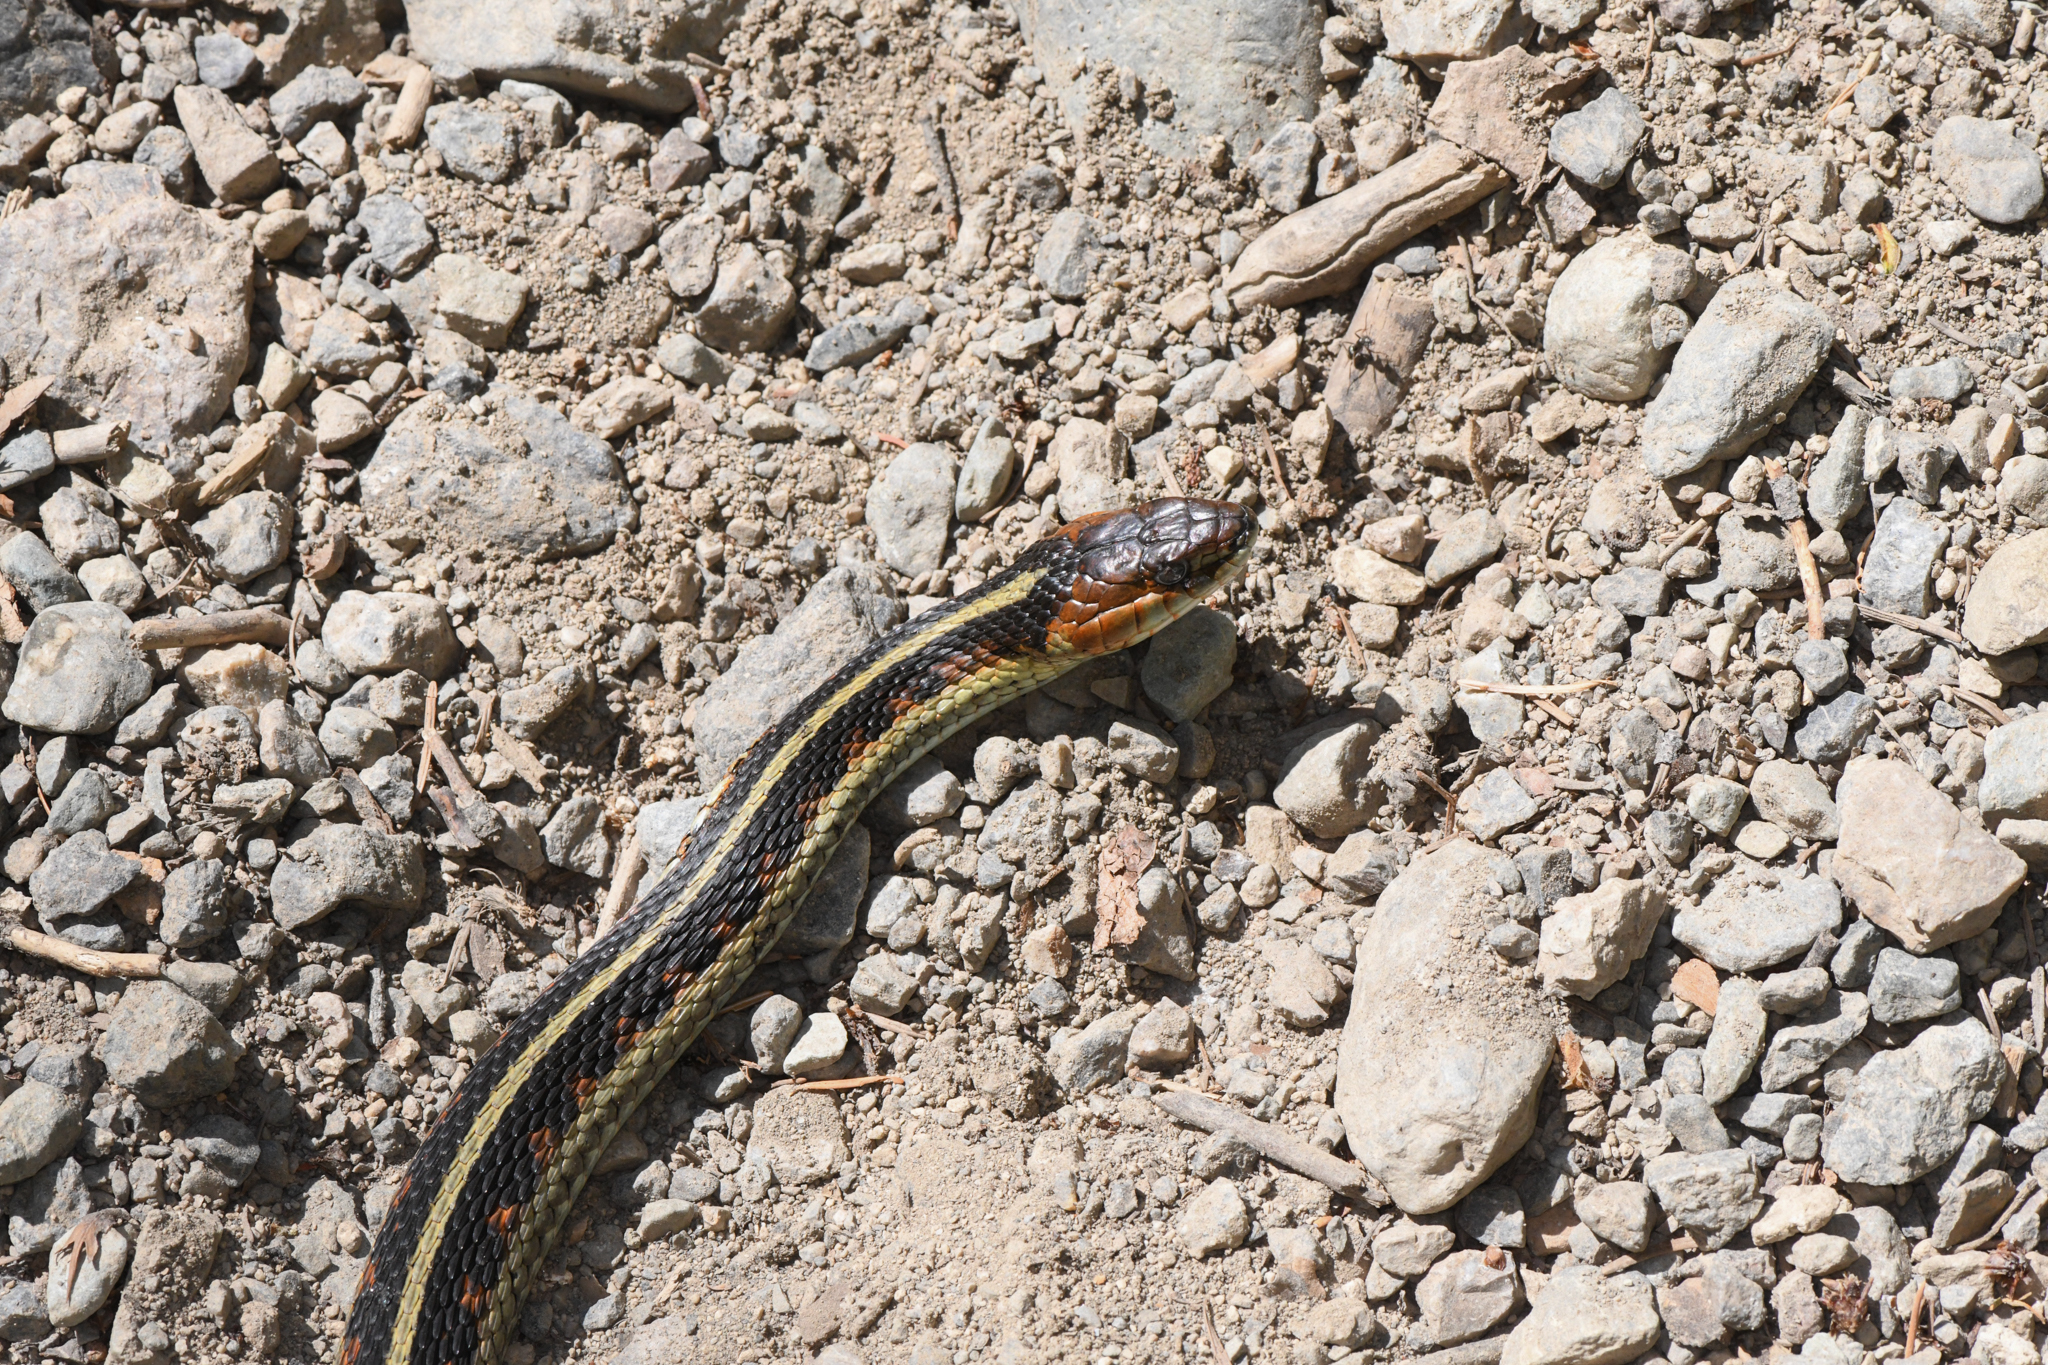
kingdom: Animalia
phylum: Chordata
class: Squamata
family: Colubridae
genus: Thamnophis
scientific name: Thamnophis sirtalis
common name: Common garter snake
